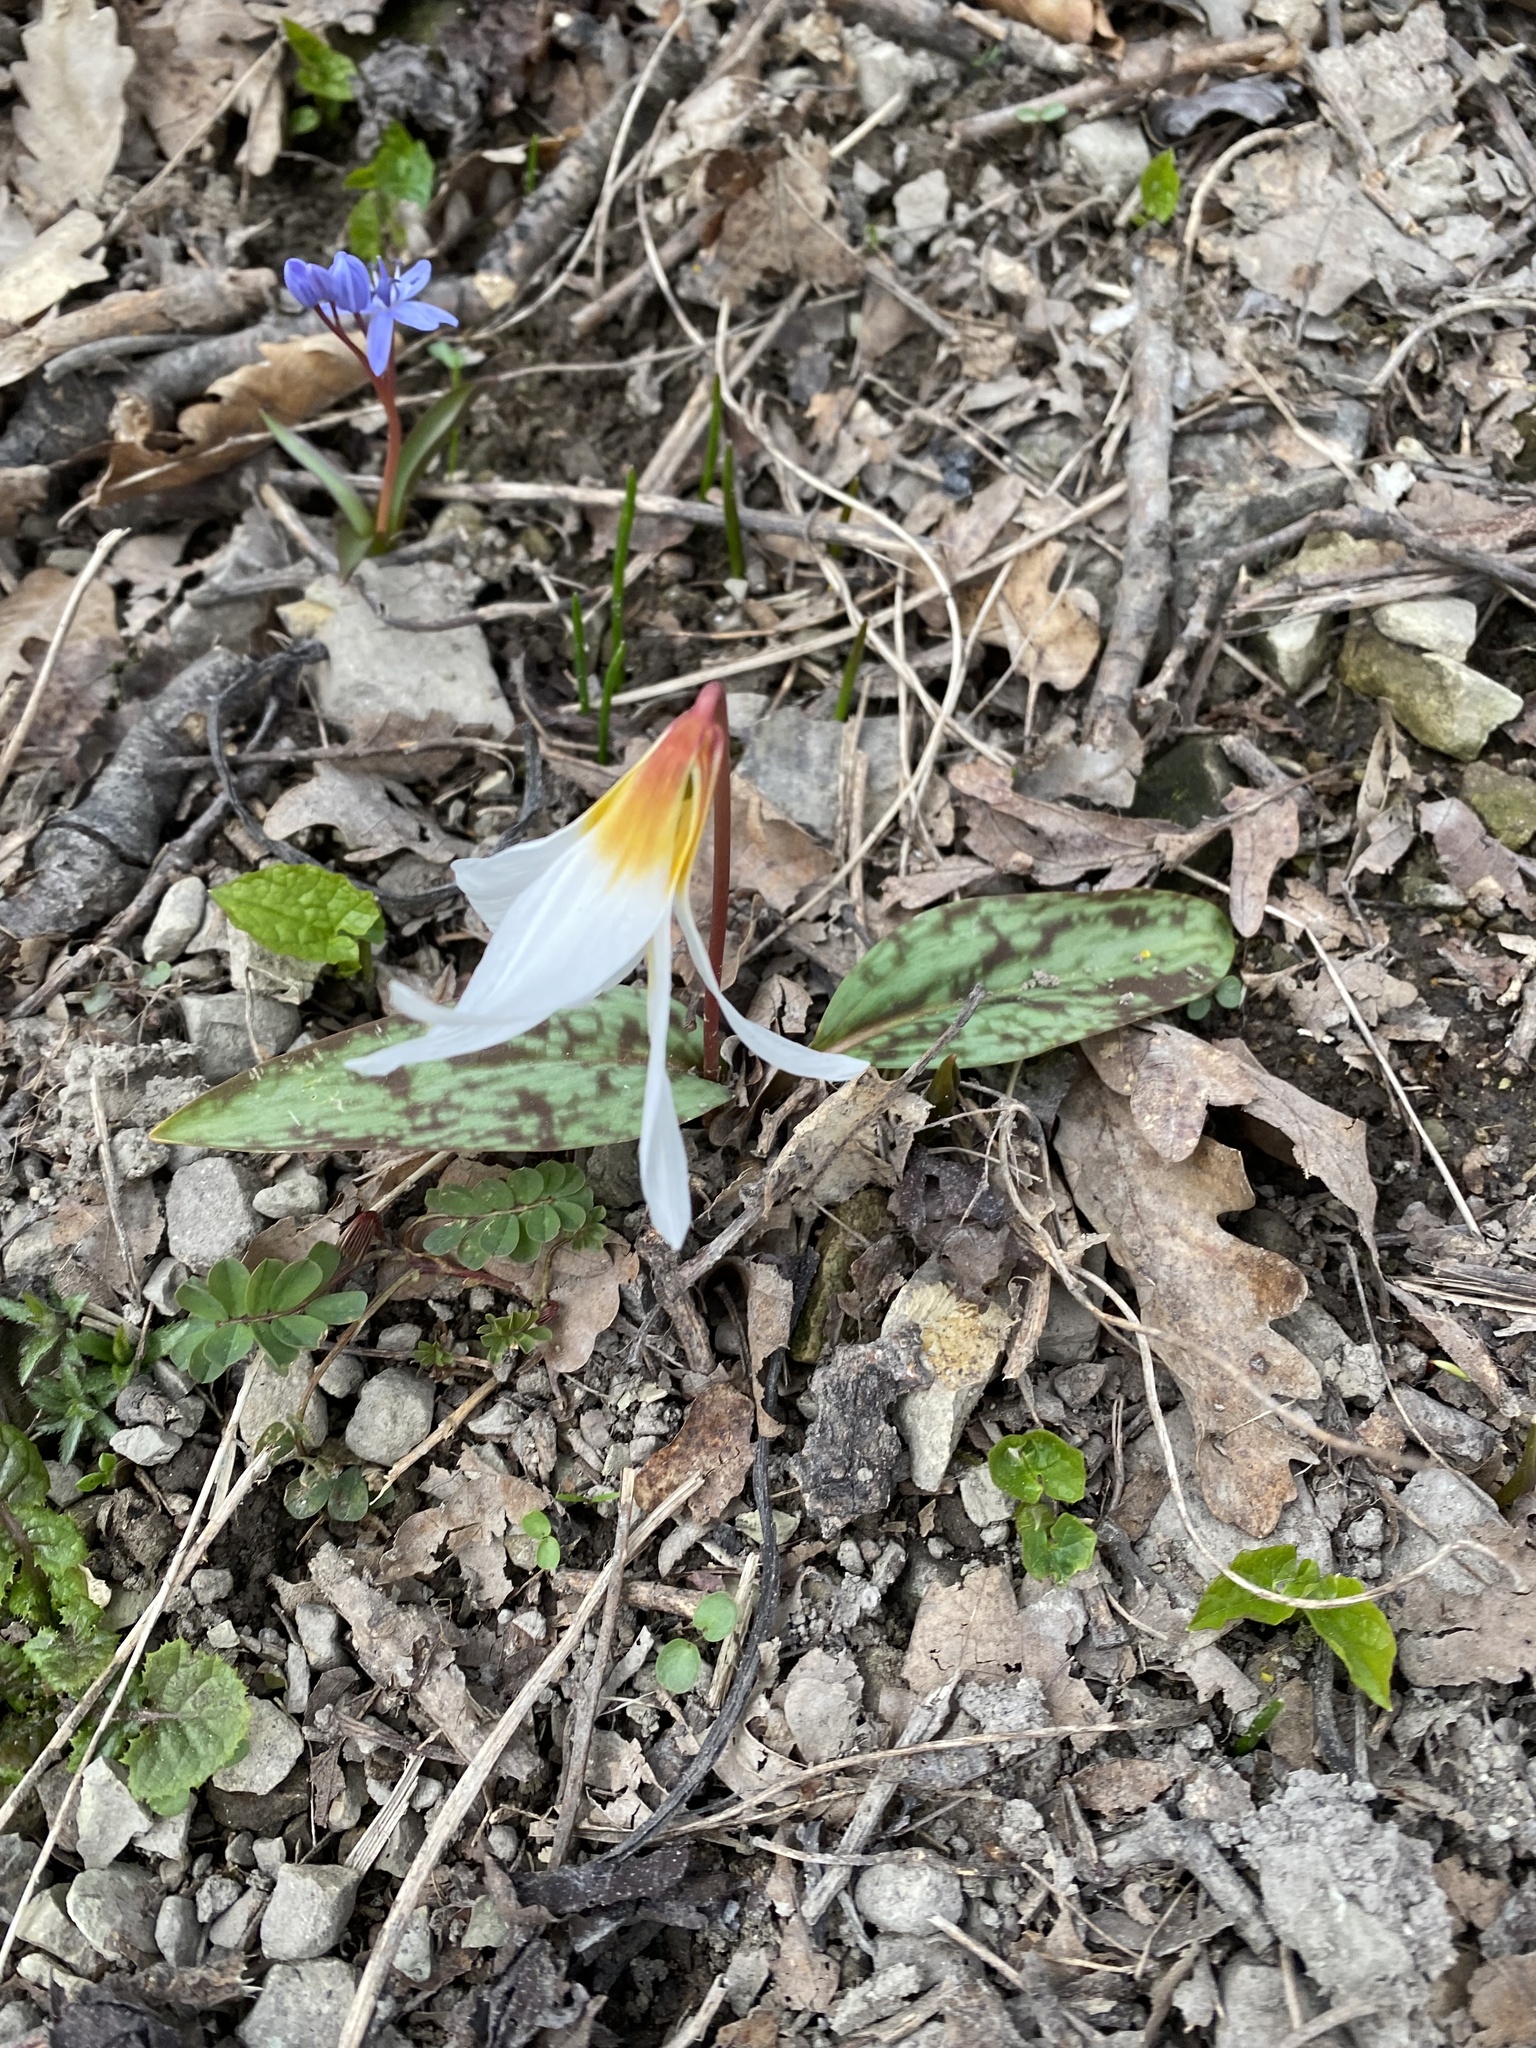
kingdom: Plantae
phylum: Tracheophyta
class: Liliopsida
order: Liliales
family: Liliaceae
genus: Erythronium
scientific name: Erythronium caucasicum
